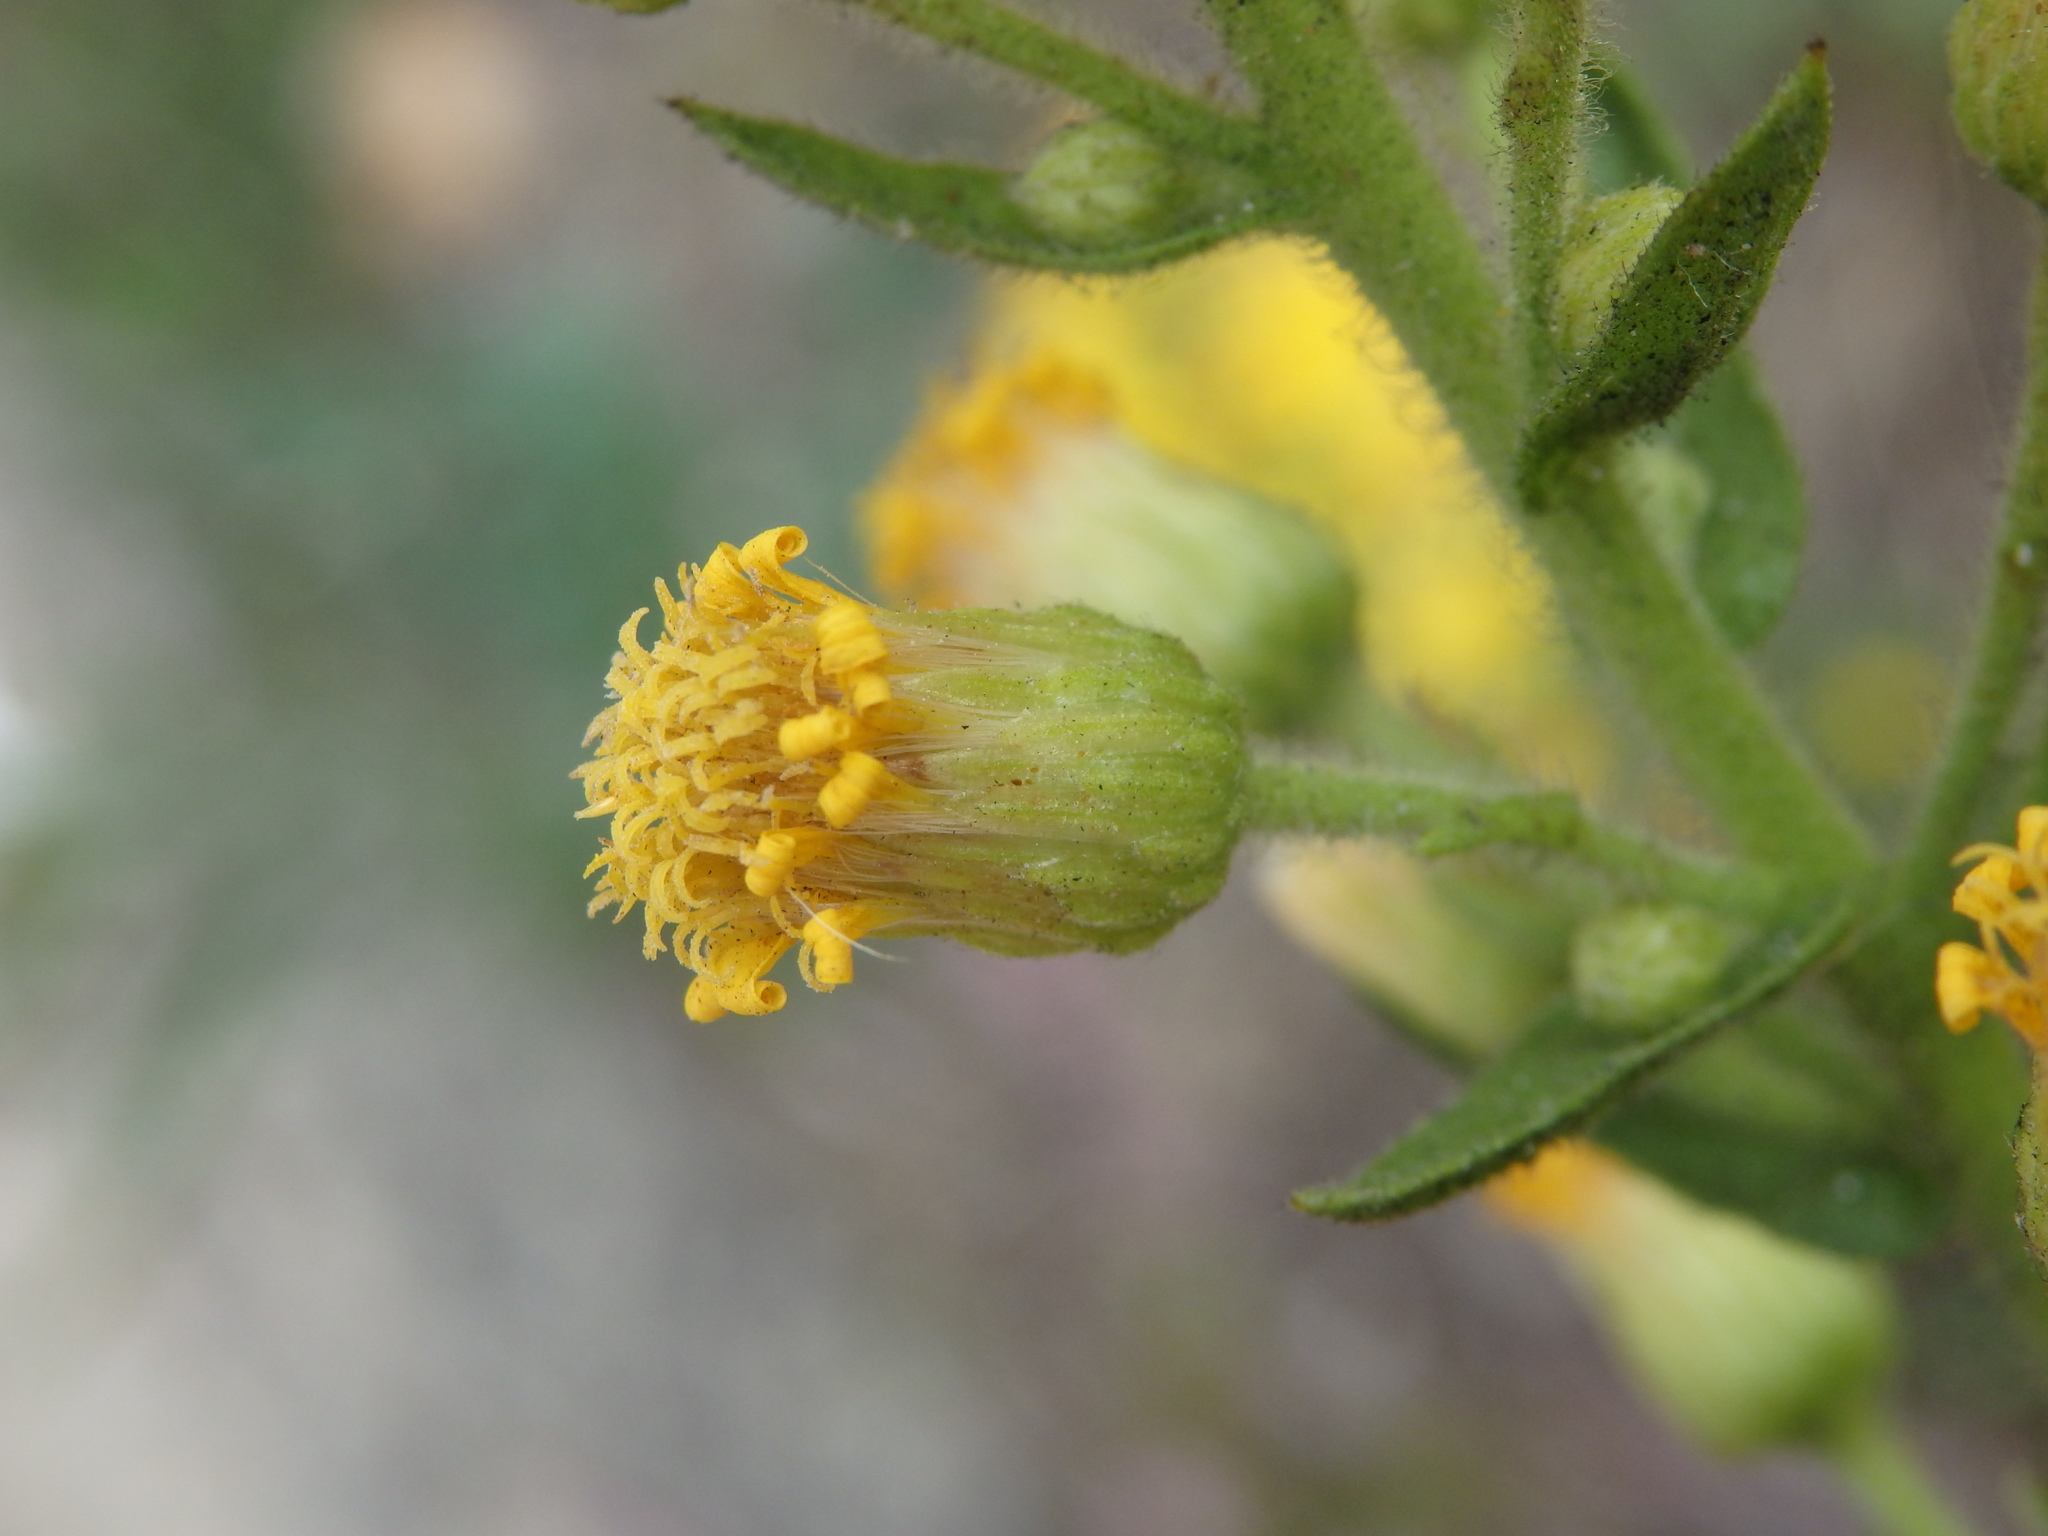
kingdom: Plantae
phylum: Tracheophyta
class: Magnoliopsida
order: Asterales
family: Asteraceae
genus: Dittrichia
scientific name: Dittrichia viscosa
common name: Woody fleabane
